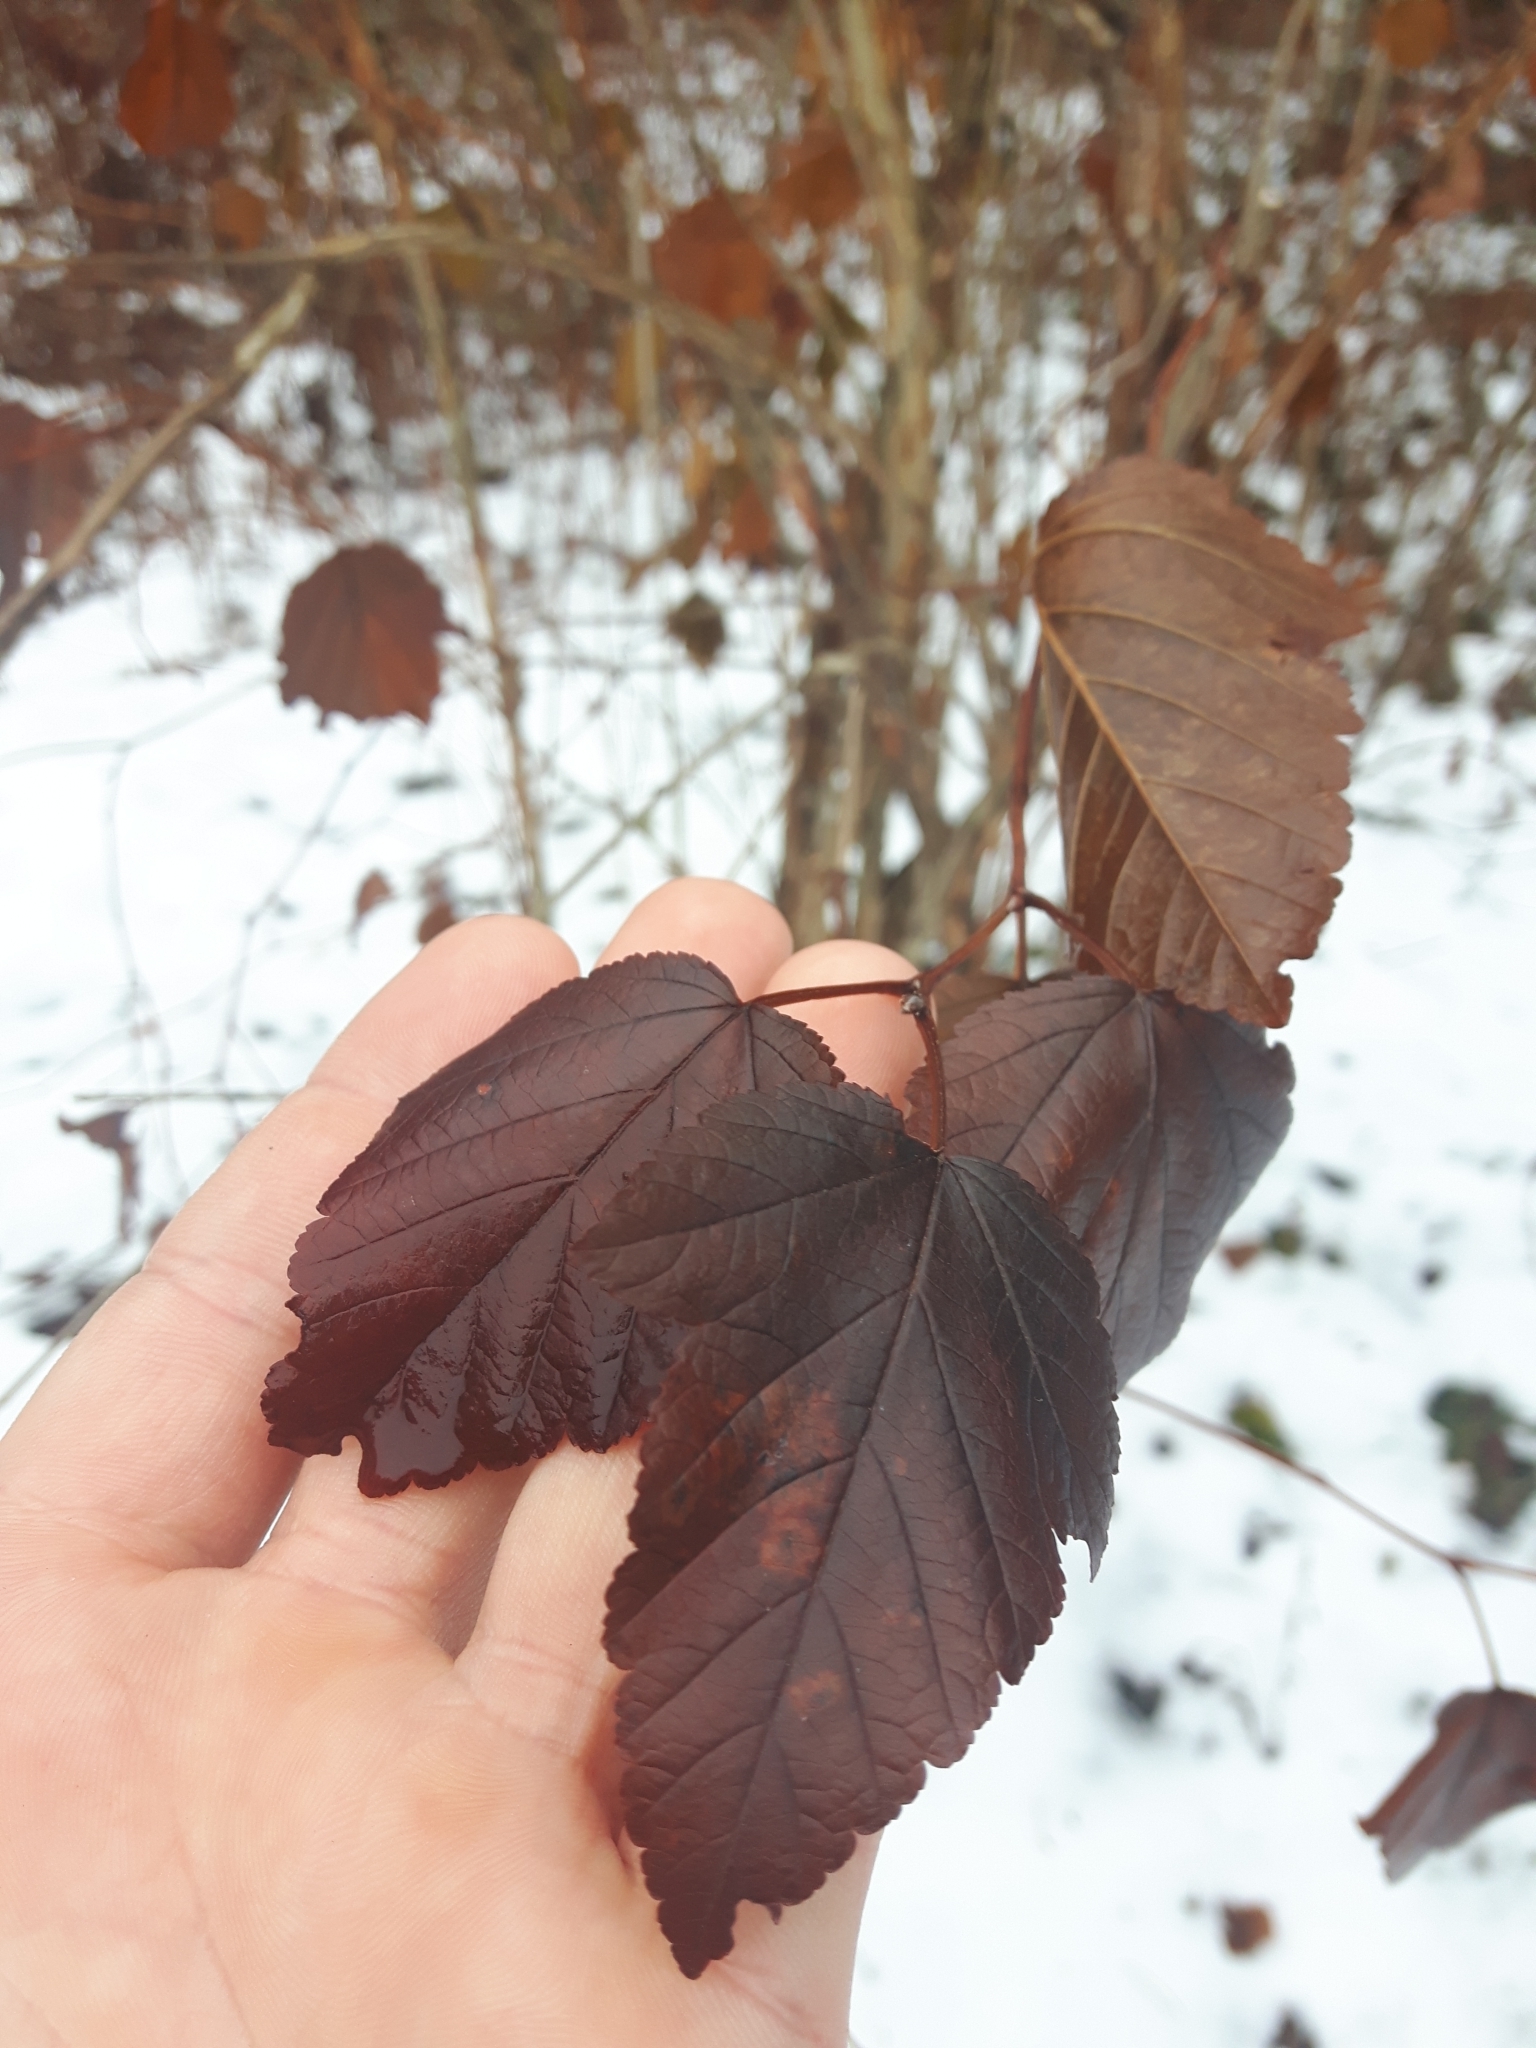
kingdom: Plantae
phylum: Tracheophyta
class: Magnoliopsida
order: Rosales
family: Rosaceae
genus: Physocarpus
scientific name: Physocarpus opulifolius
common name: Ninebark
